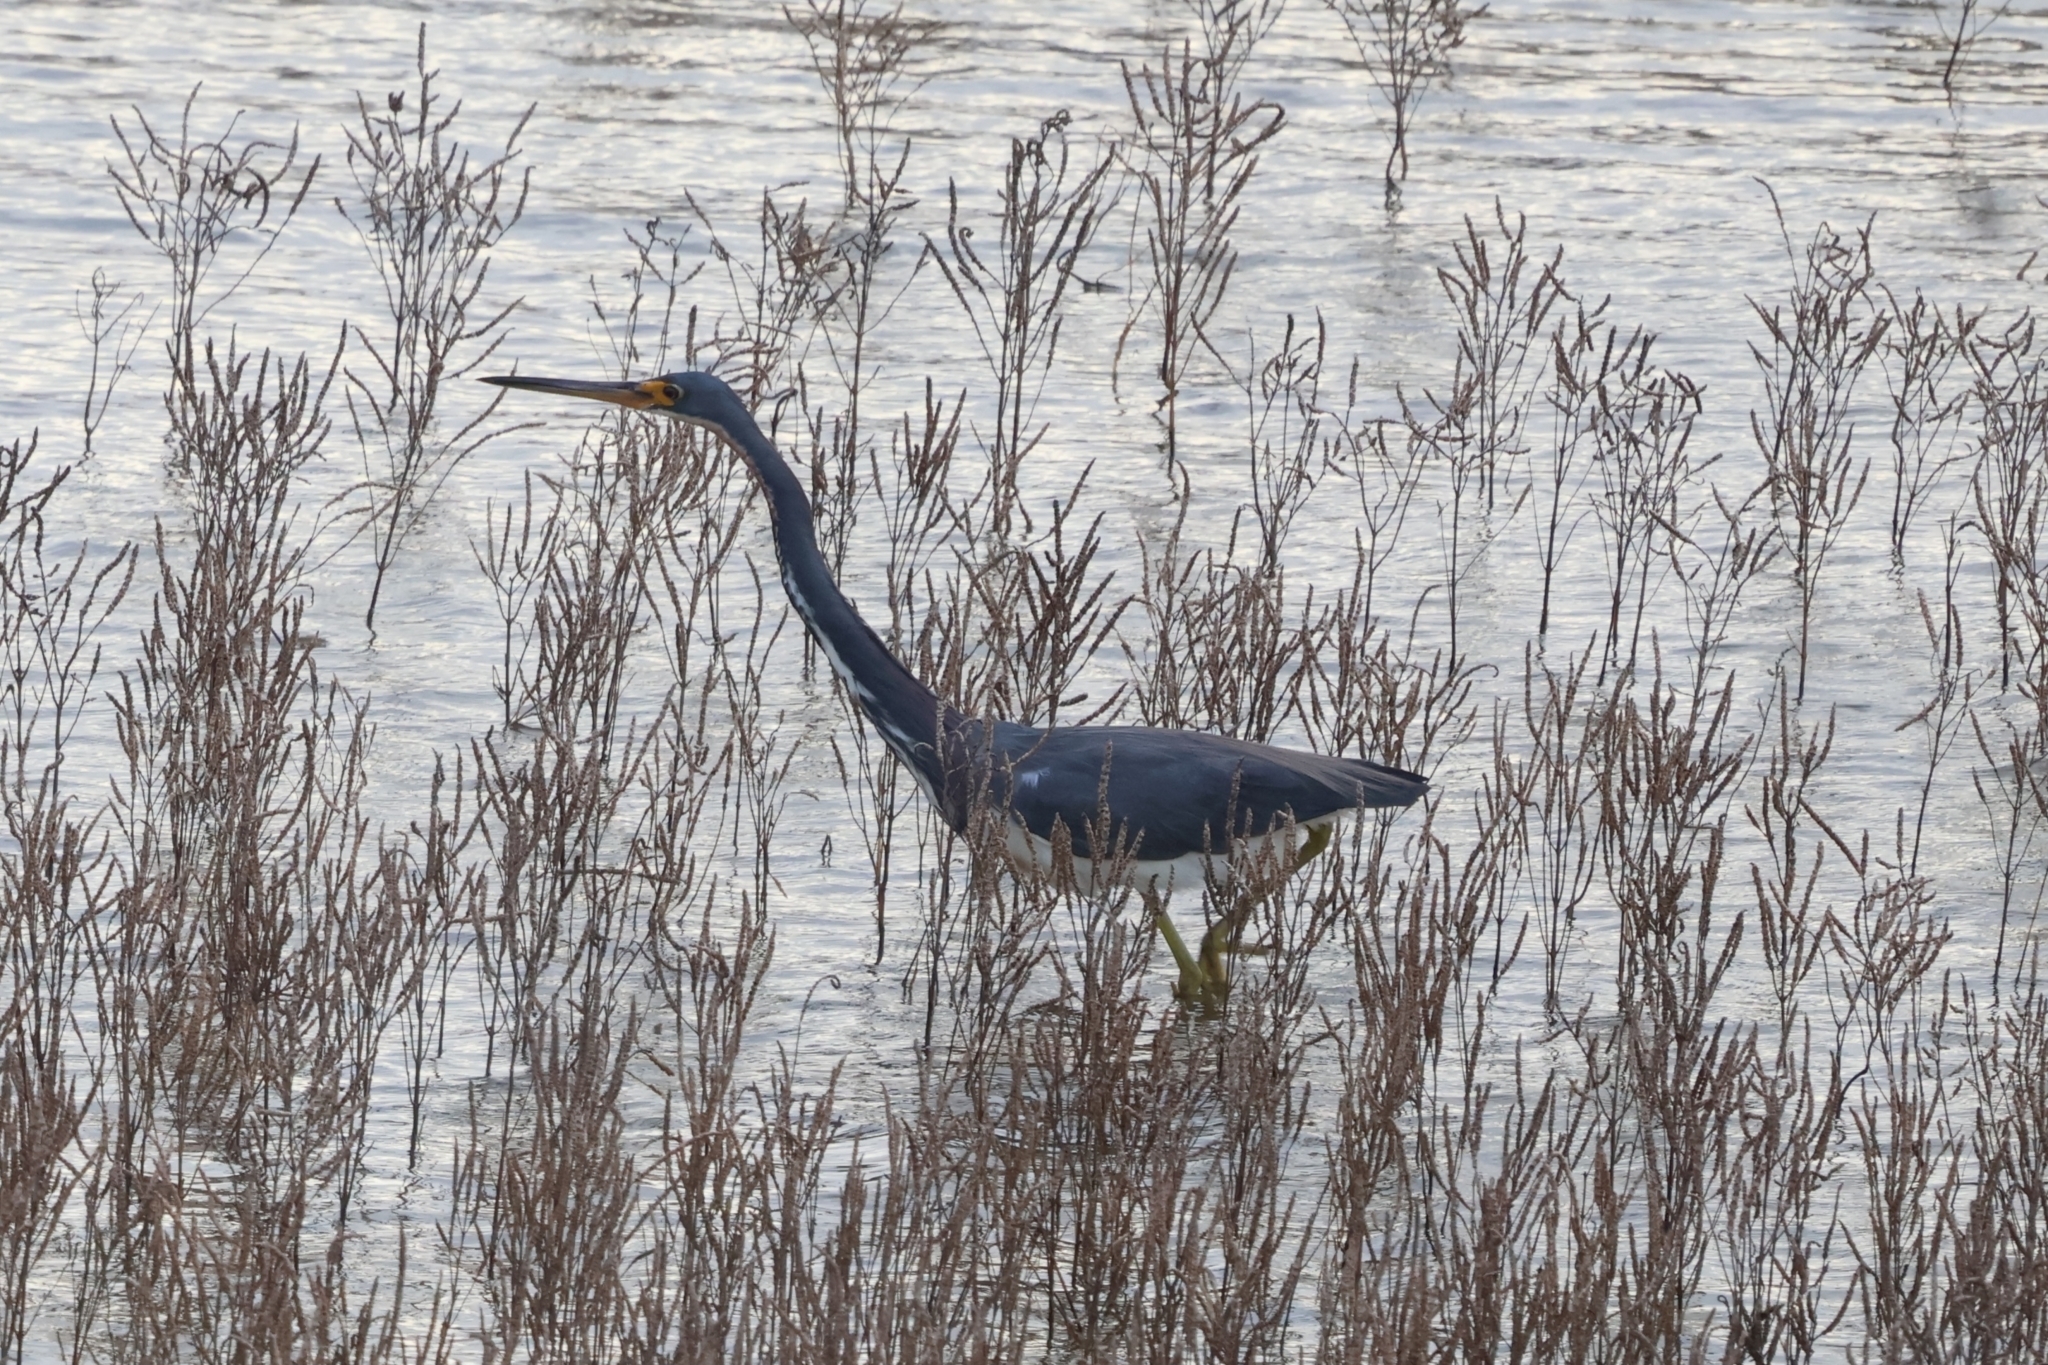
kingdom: Animalia
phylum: Chordata
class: Aves
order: Pelecaniformes
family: Ardeidae
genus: Egretta
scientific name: Egretta caerulea
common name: Little blue heron
